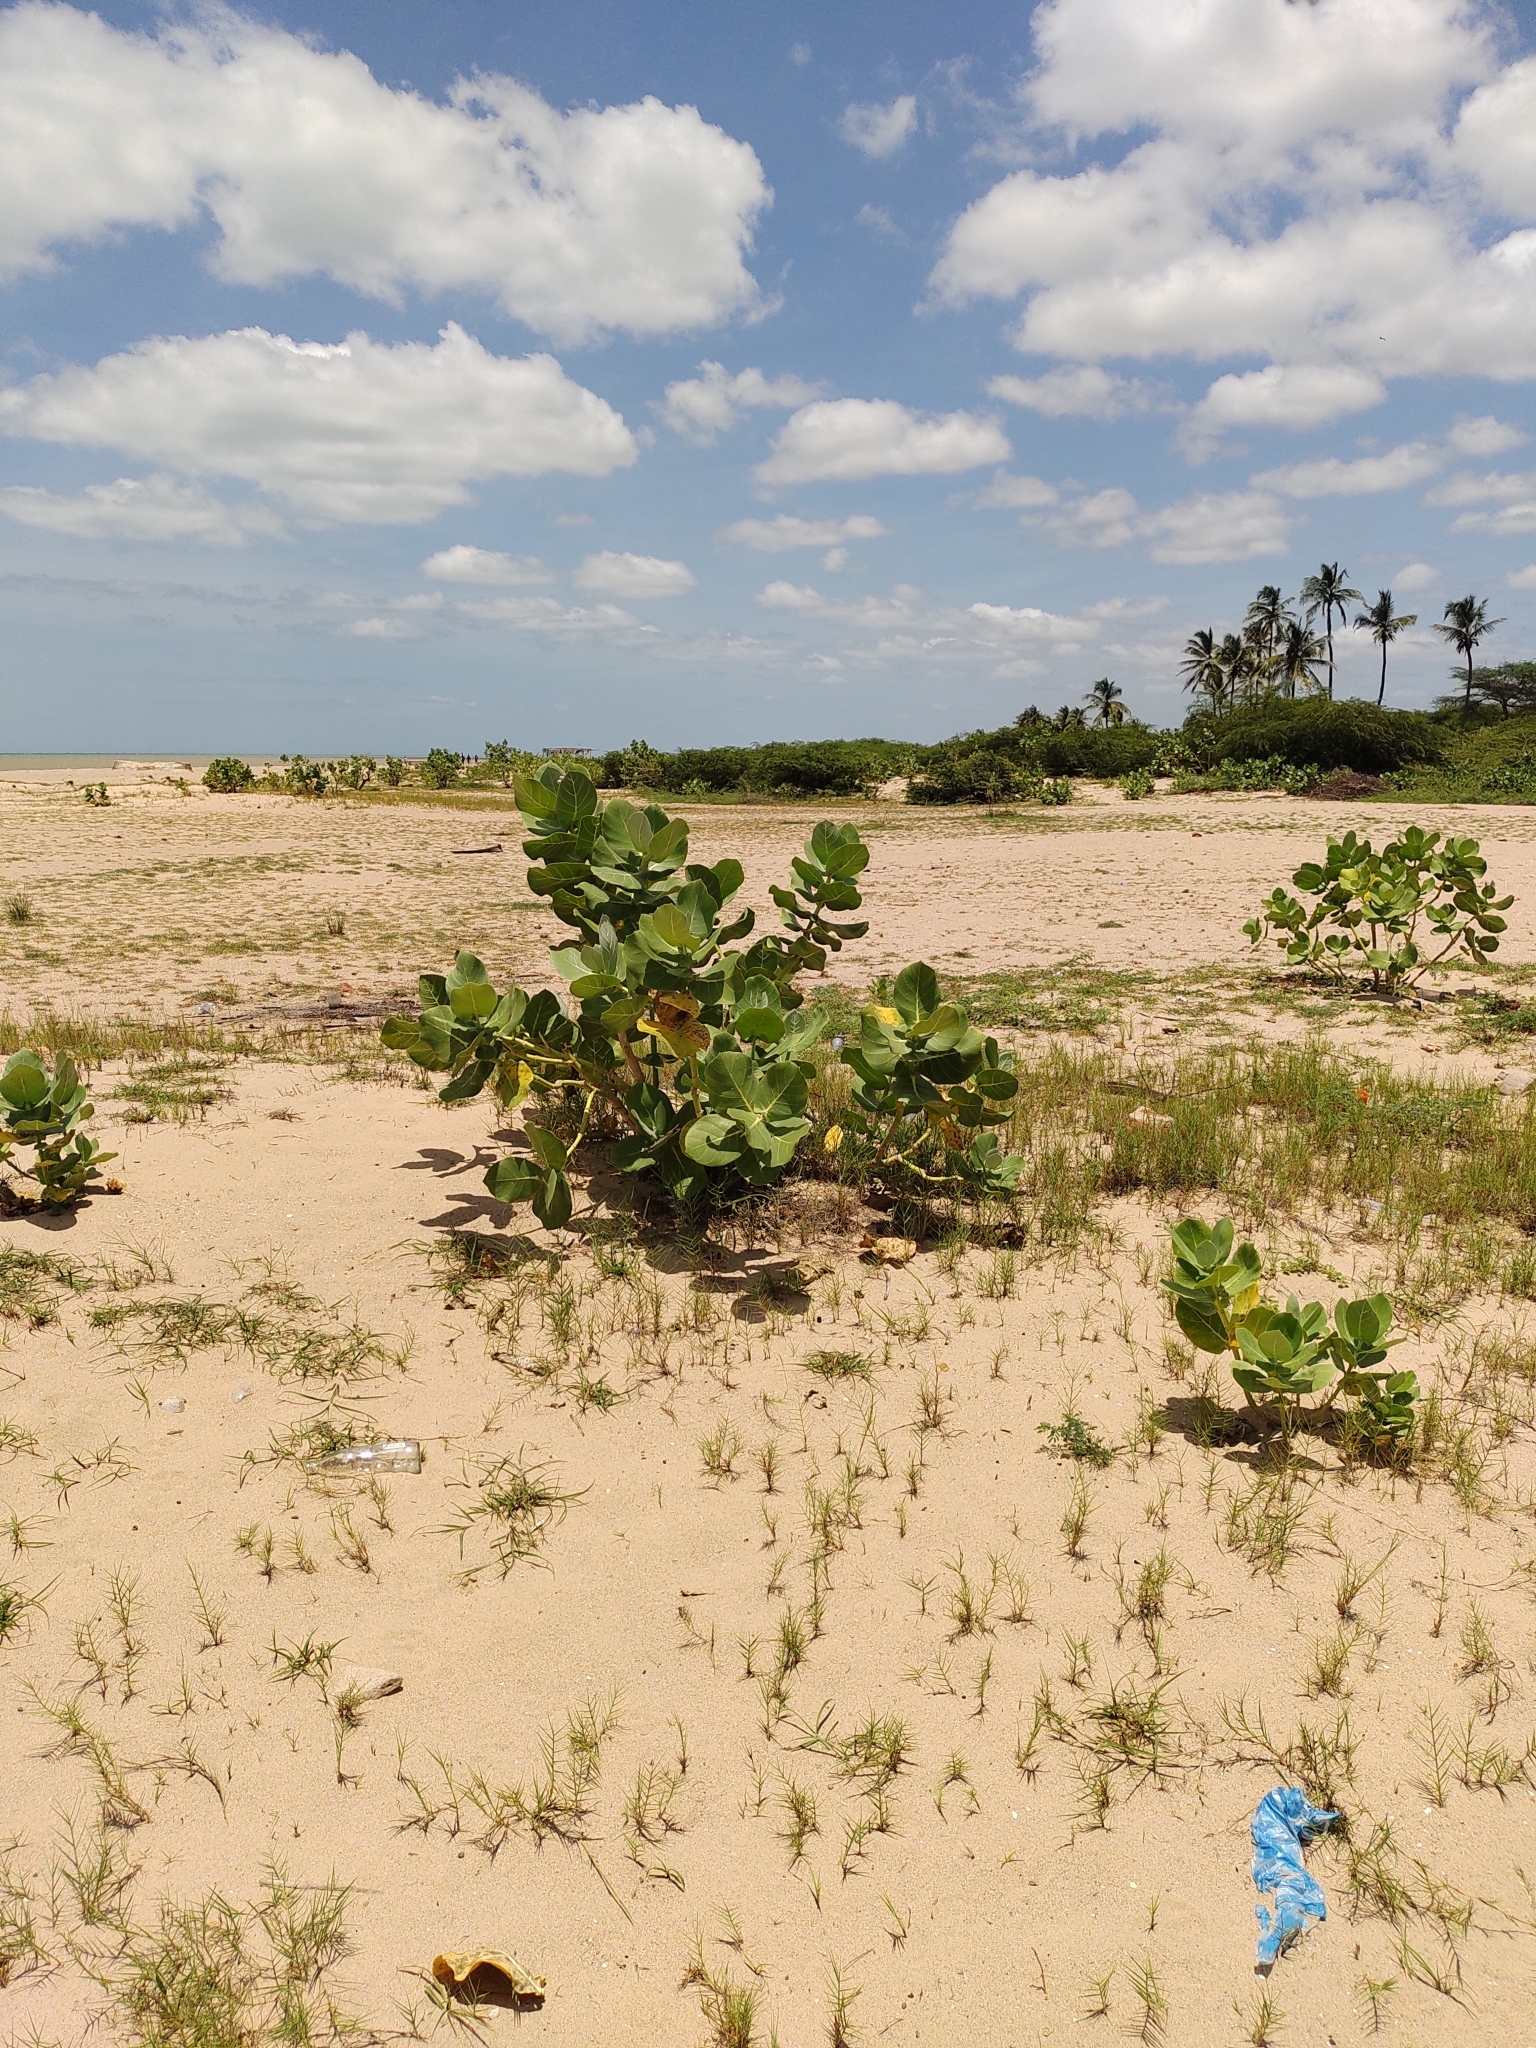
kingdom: Plantae
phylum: Tracheophyta
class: Magnoliopsida
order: Gentianales
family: Apocynaceae
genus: Calotropis
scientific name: Calotropis procera
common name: Roostertree
